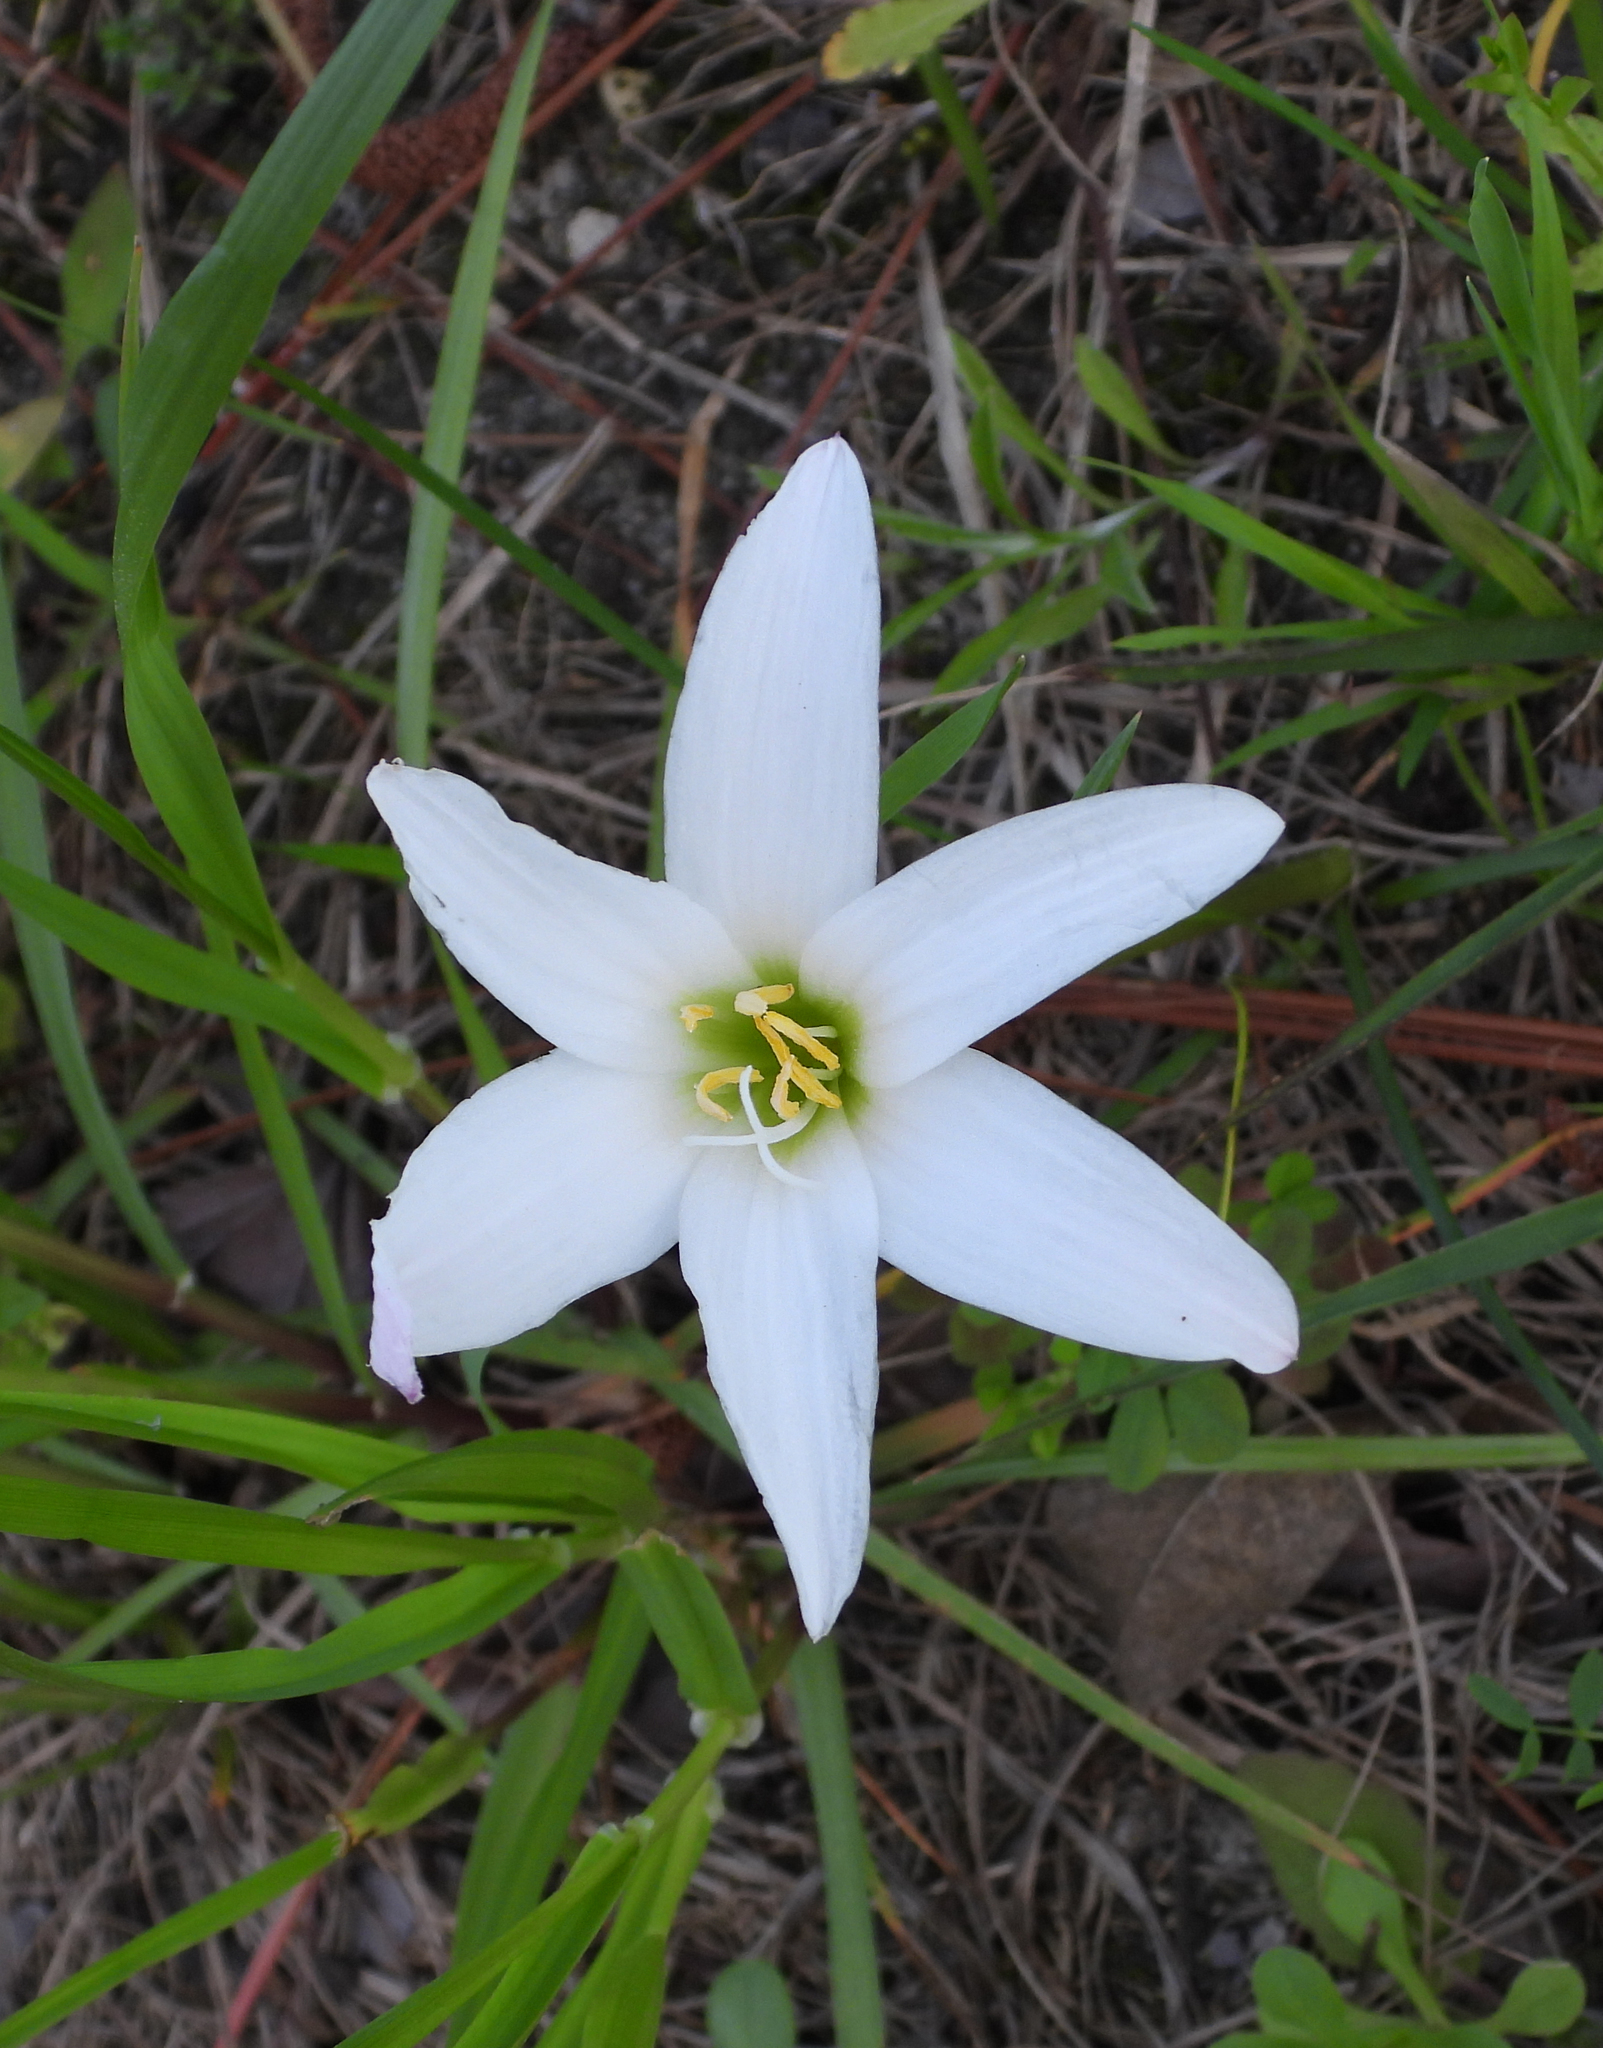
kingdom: Plantae
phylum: Tracheophyta
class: Liliopsida
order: Asparagales
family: Amaryllidaceae
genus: Zephyranthes
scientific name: Zephyranthes treatiae
